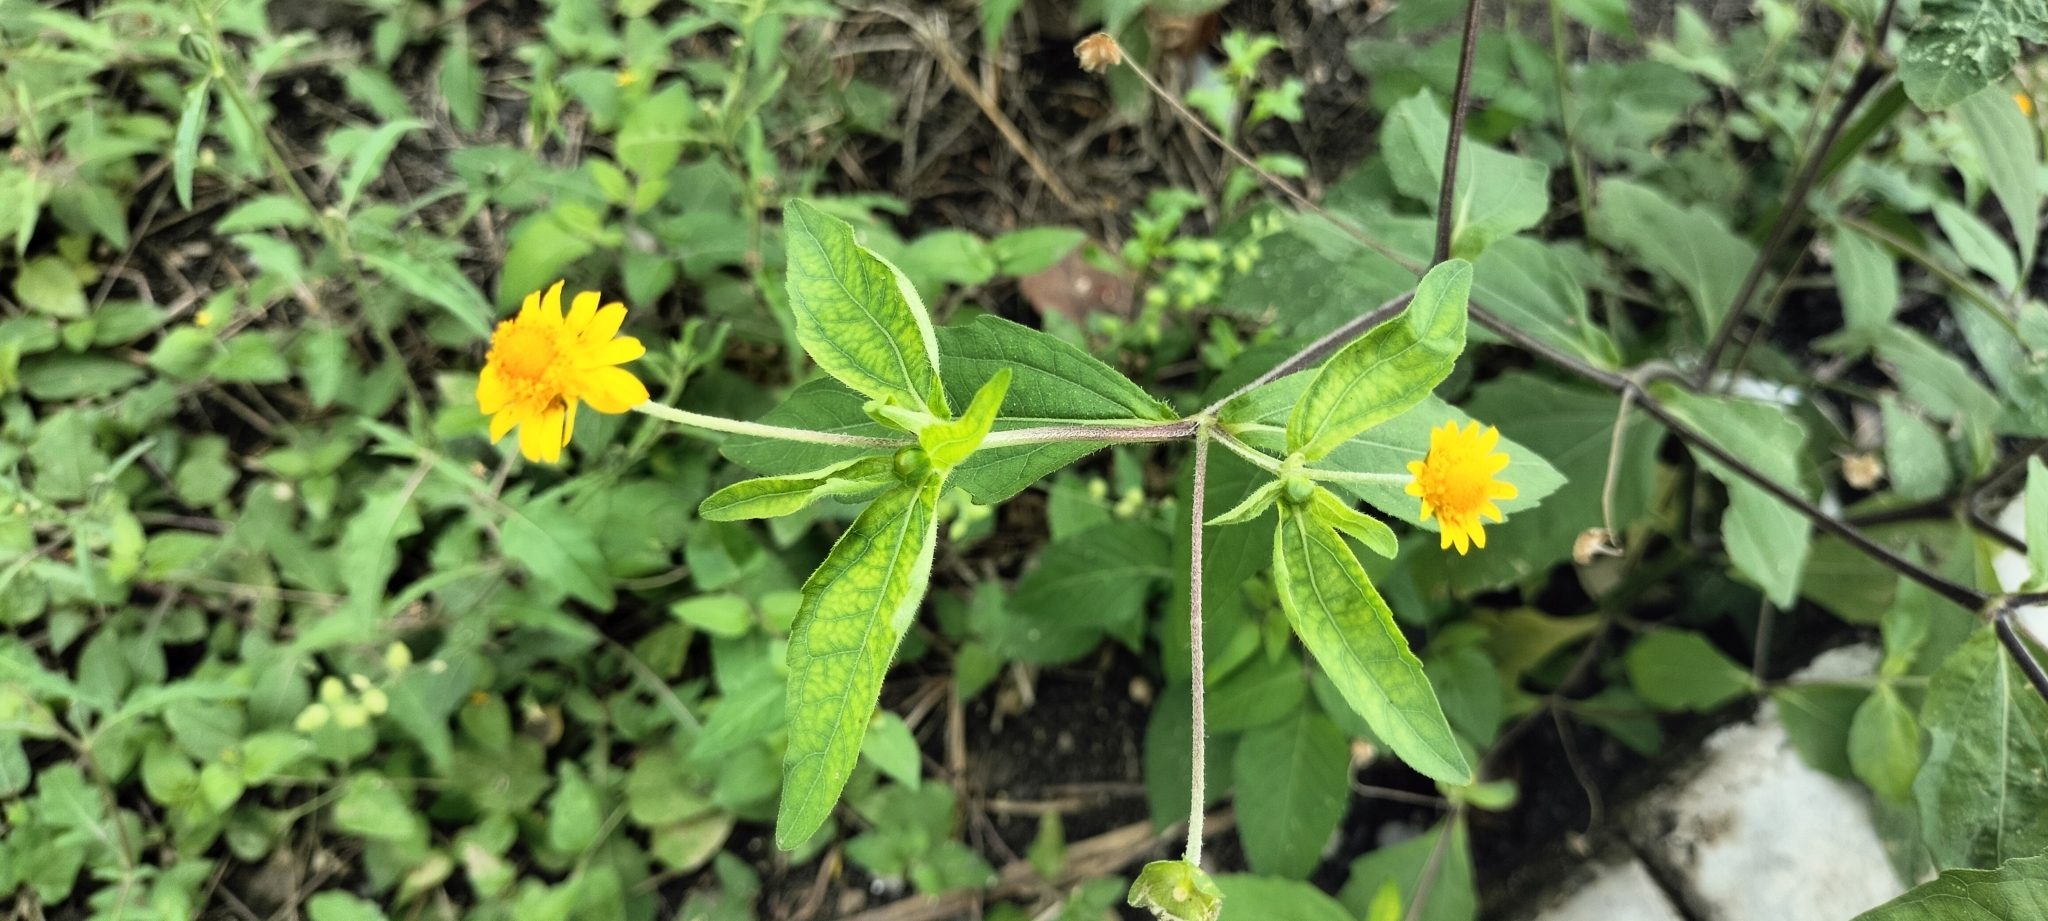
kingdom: Plantae
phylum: Tracheophyta
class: Magnoliopsida
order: Asterales
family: Asteraceae
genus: Melampodium
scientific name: Melampodium divaricatum
